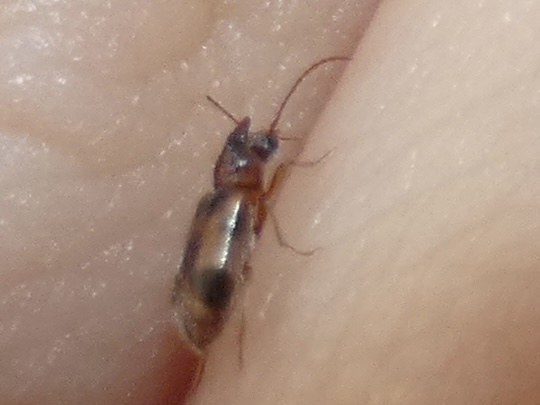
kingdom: Animalia
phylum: Arthropoda
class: Insecta
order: Coleoptera
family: Anthicidae
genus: Notoxus
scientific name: Notoxus monoceros
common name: Monoceros beetle
